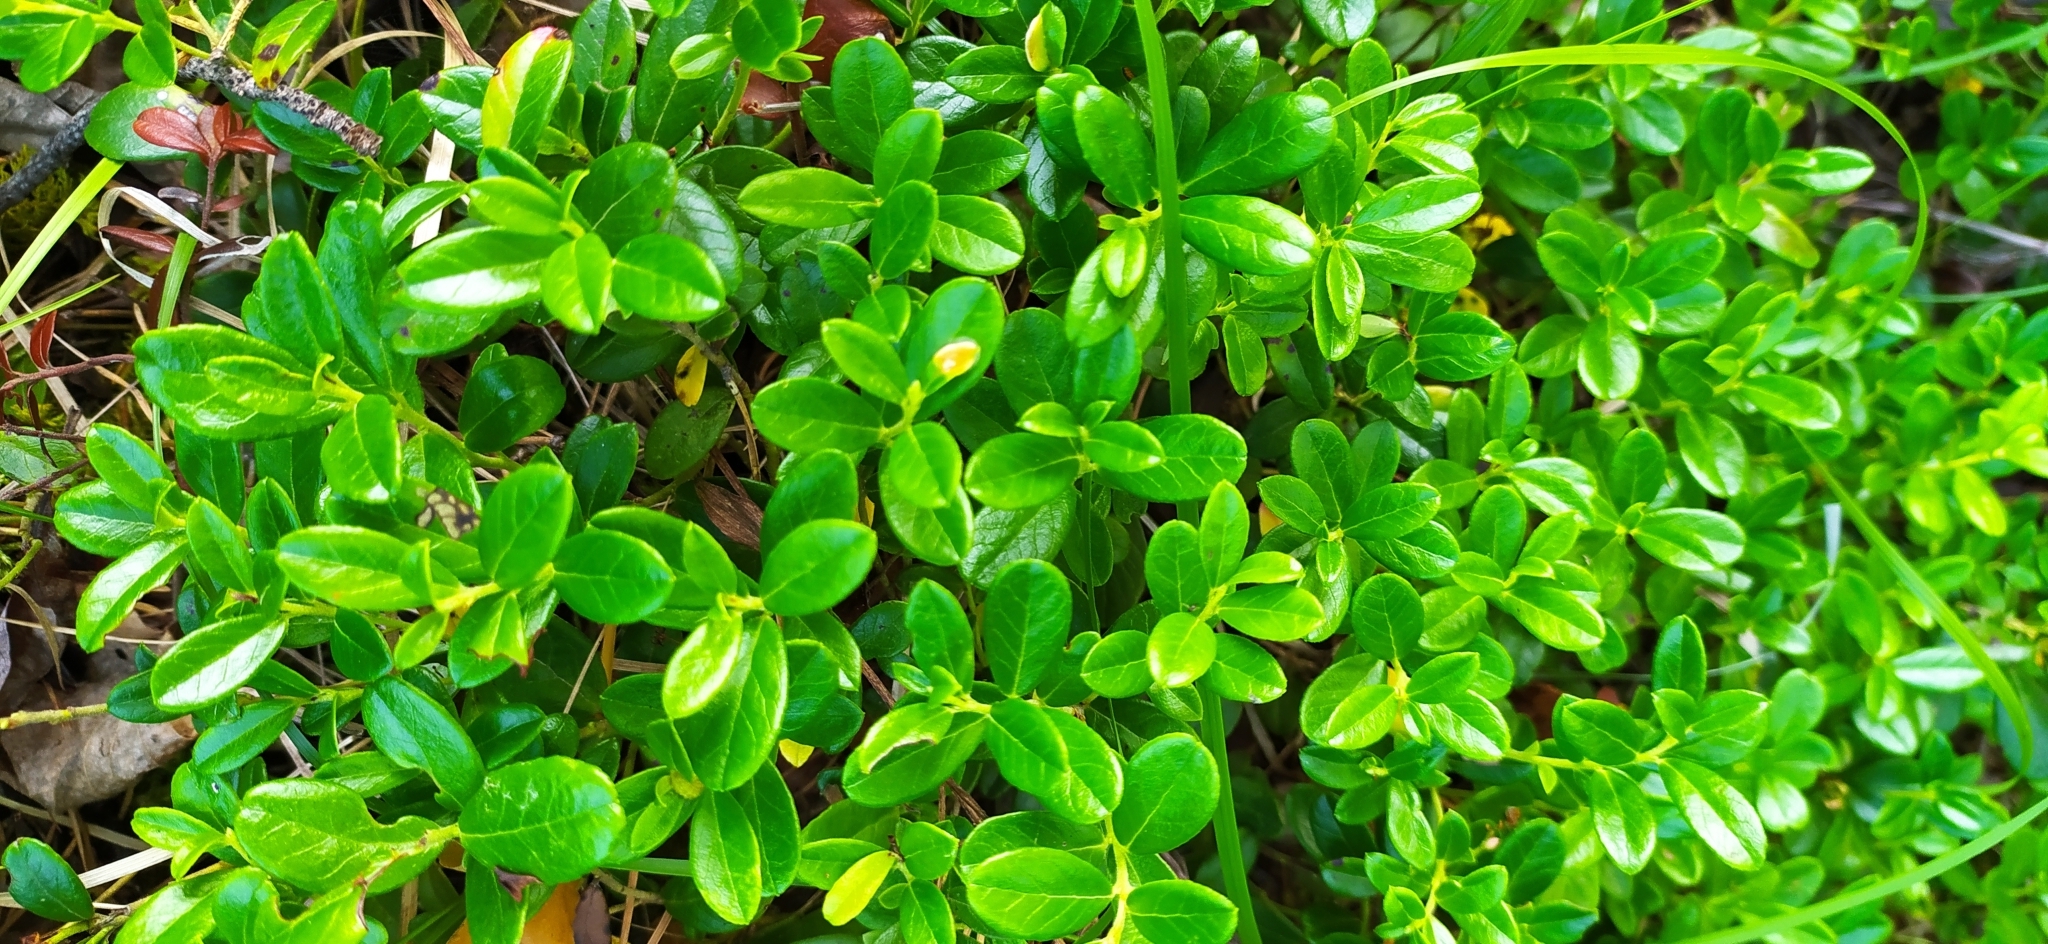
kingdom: Plantae
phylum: Tracheophyta
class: Magnoliopsida
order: Ericales
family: Ericaceae
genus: Vaccinium
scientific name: Vaccinium vitis-idaea
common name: Cowberry
